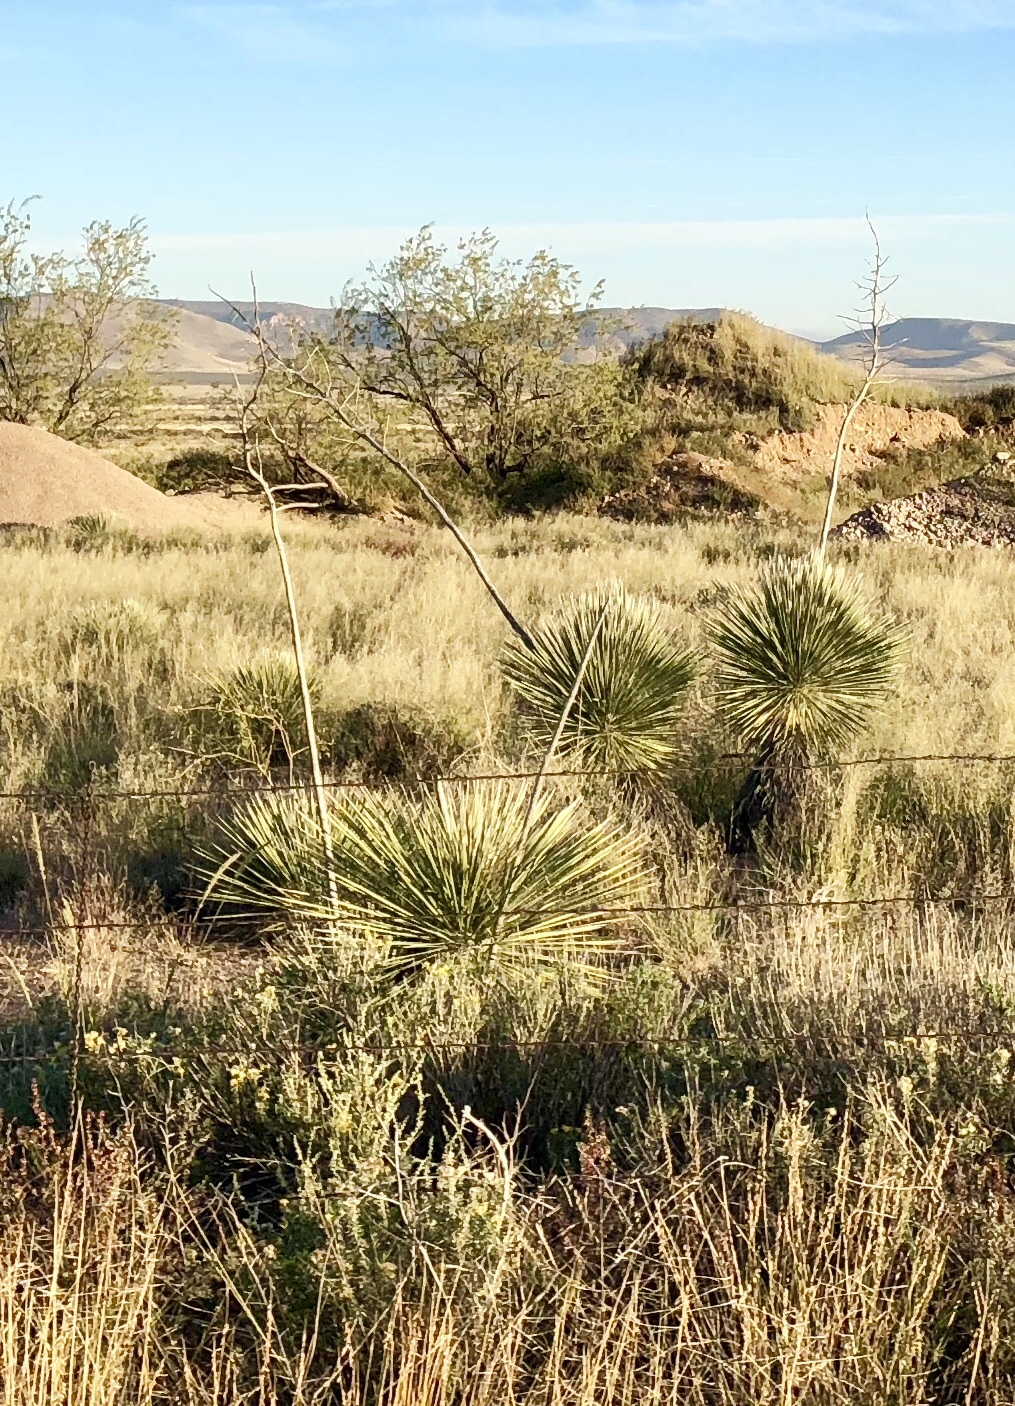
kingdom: Plantae
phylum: Tracheophyta
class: Liliopsida
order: Asparagales
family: Asparagaceae
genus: Yucca
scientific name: Yucca elata
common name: Palmella
